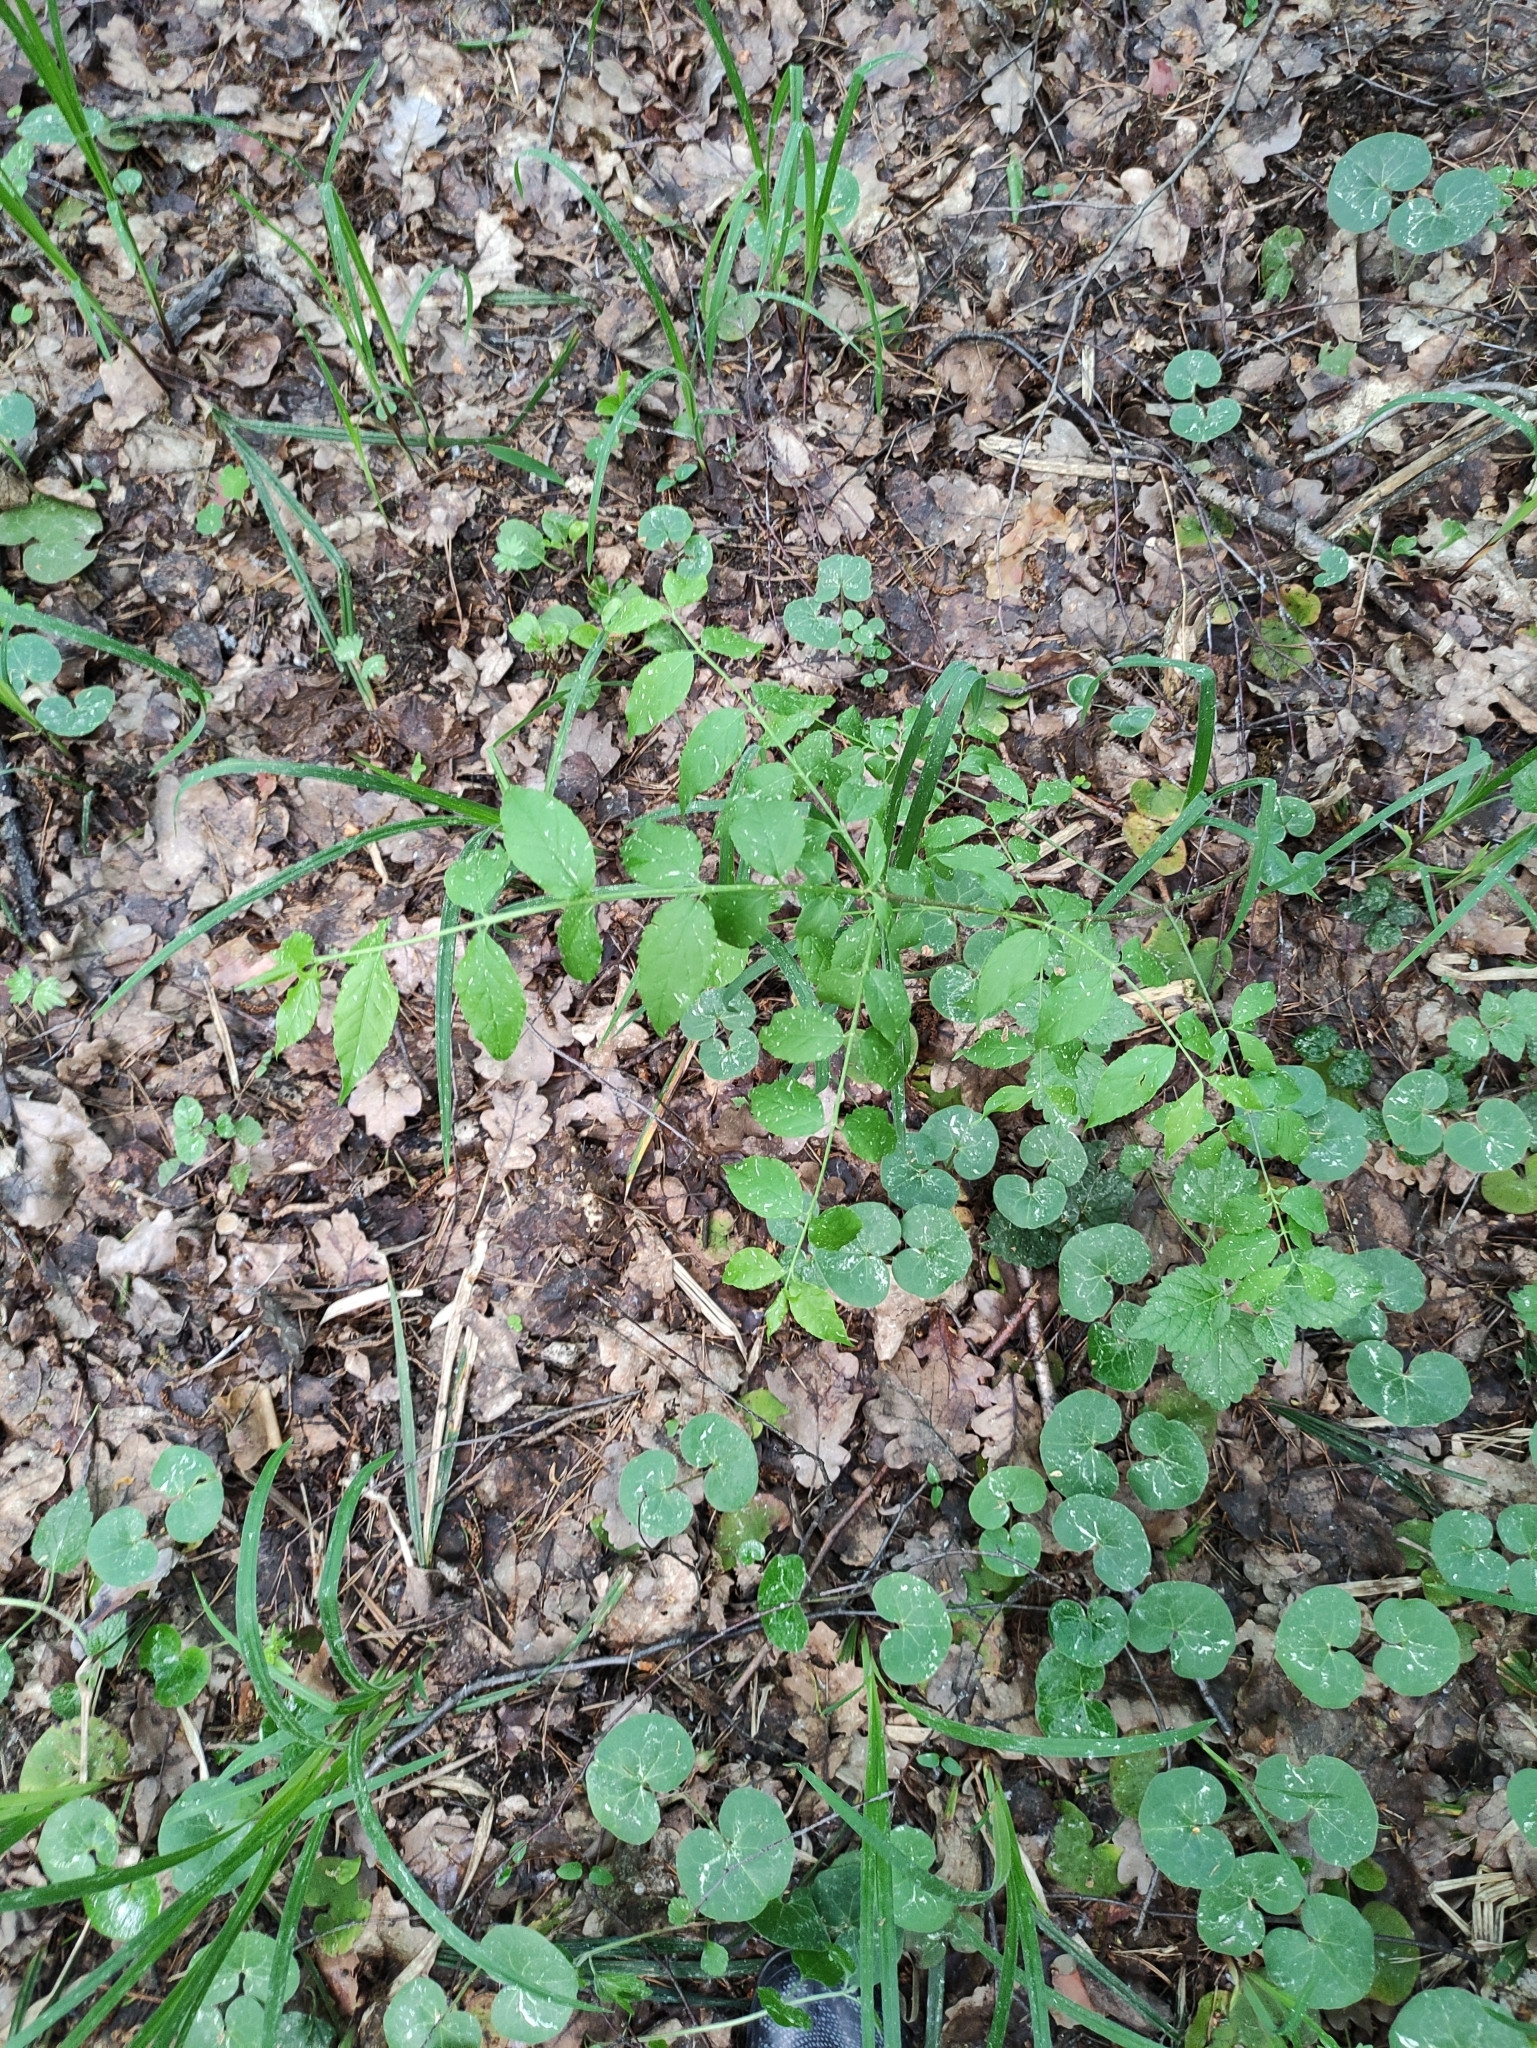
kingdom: Plantae
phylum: Tracheophyta
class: Magnoliopsida
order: Celastrales
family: Celastraceae
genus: Euonymus
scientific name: Euonymus verrucosus
